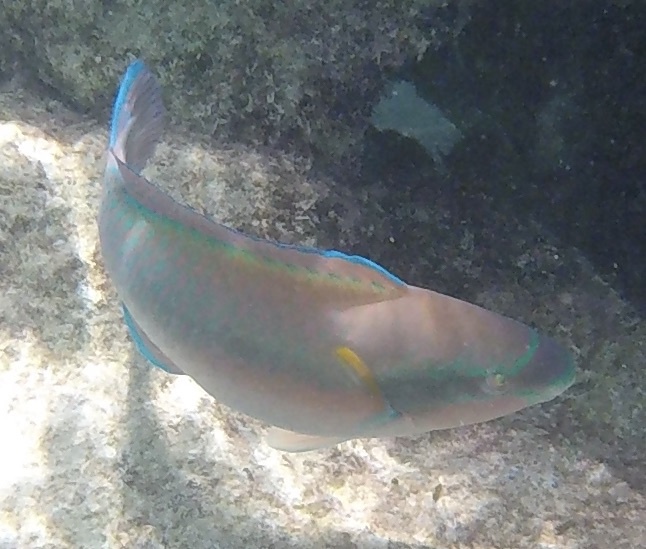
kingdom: Animalia
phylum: Chordata
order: Perciformes
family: Scaridae
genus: Scarus
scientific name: Scarus iseri
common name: Striped parrotfish
